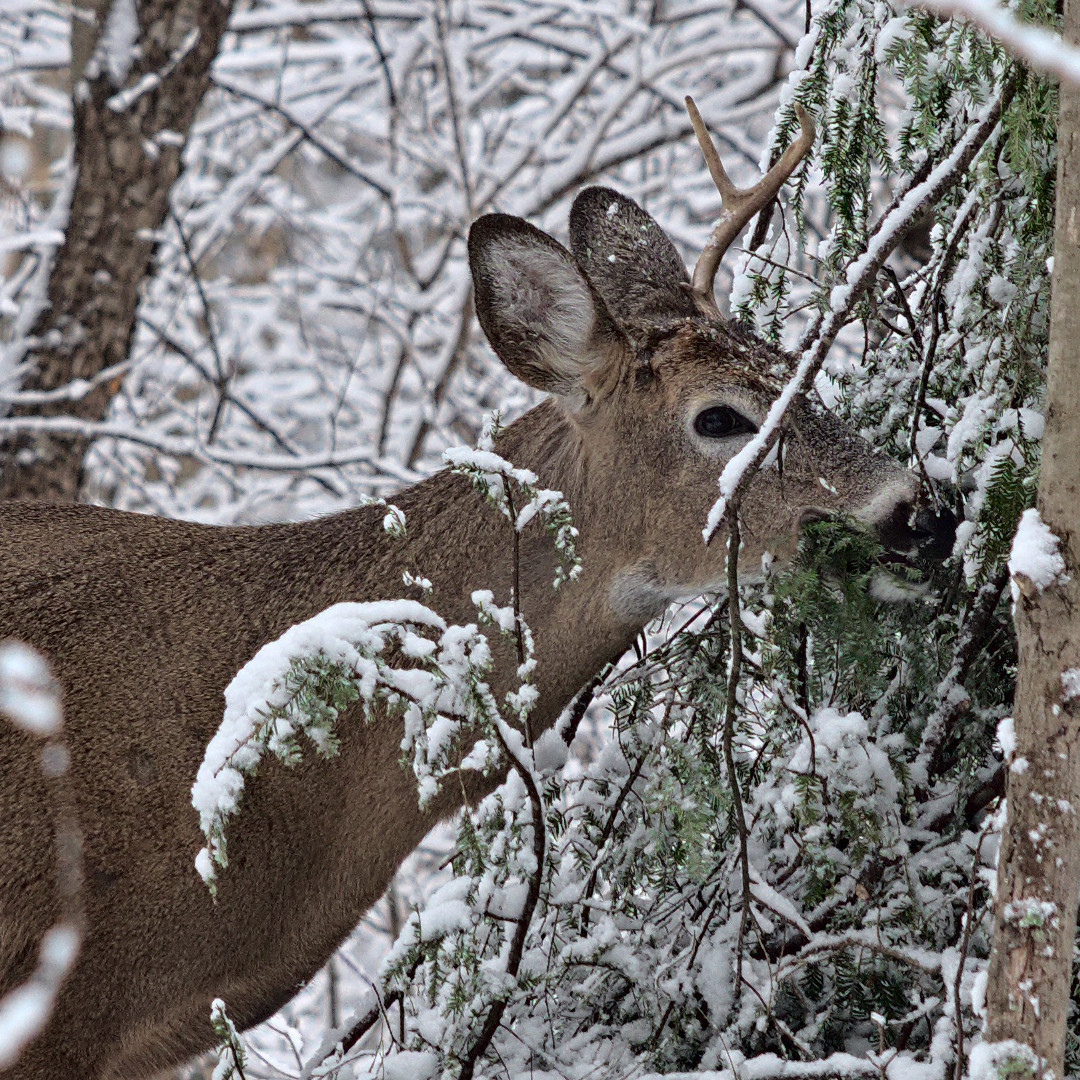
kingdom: Animalia
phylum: Chordata
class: Mammalia
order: Artiodactyla
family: Cervidae
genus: Odocoileus
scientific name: Odocoileus virginianus
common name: White-tailed deer
